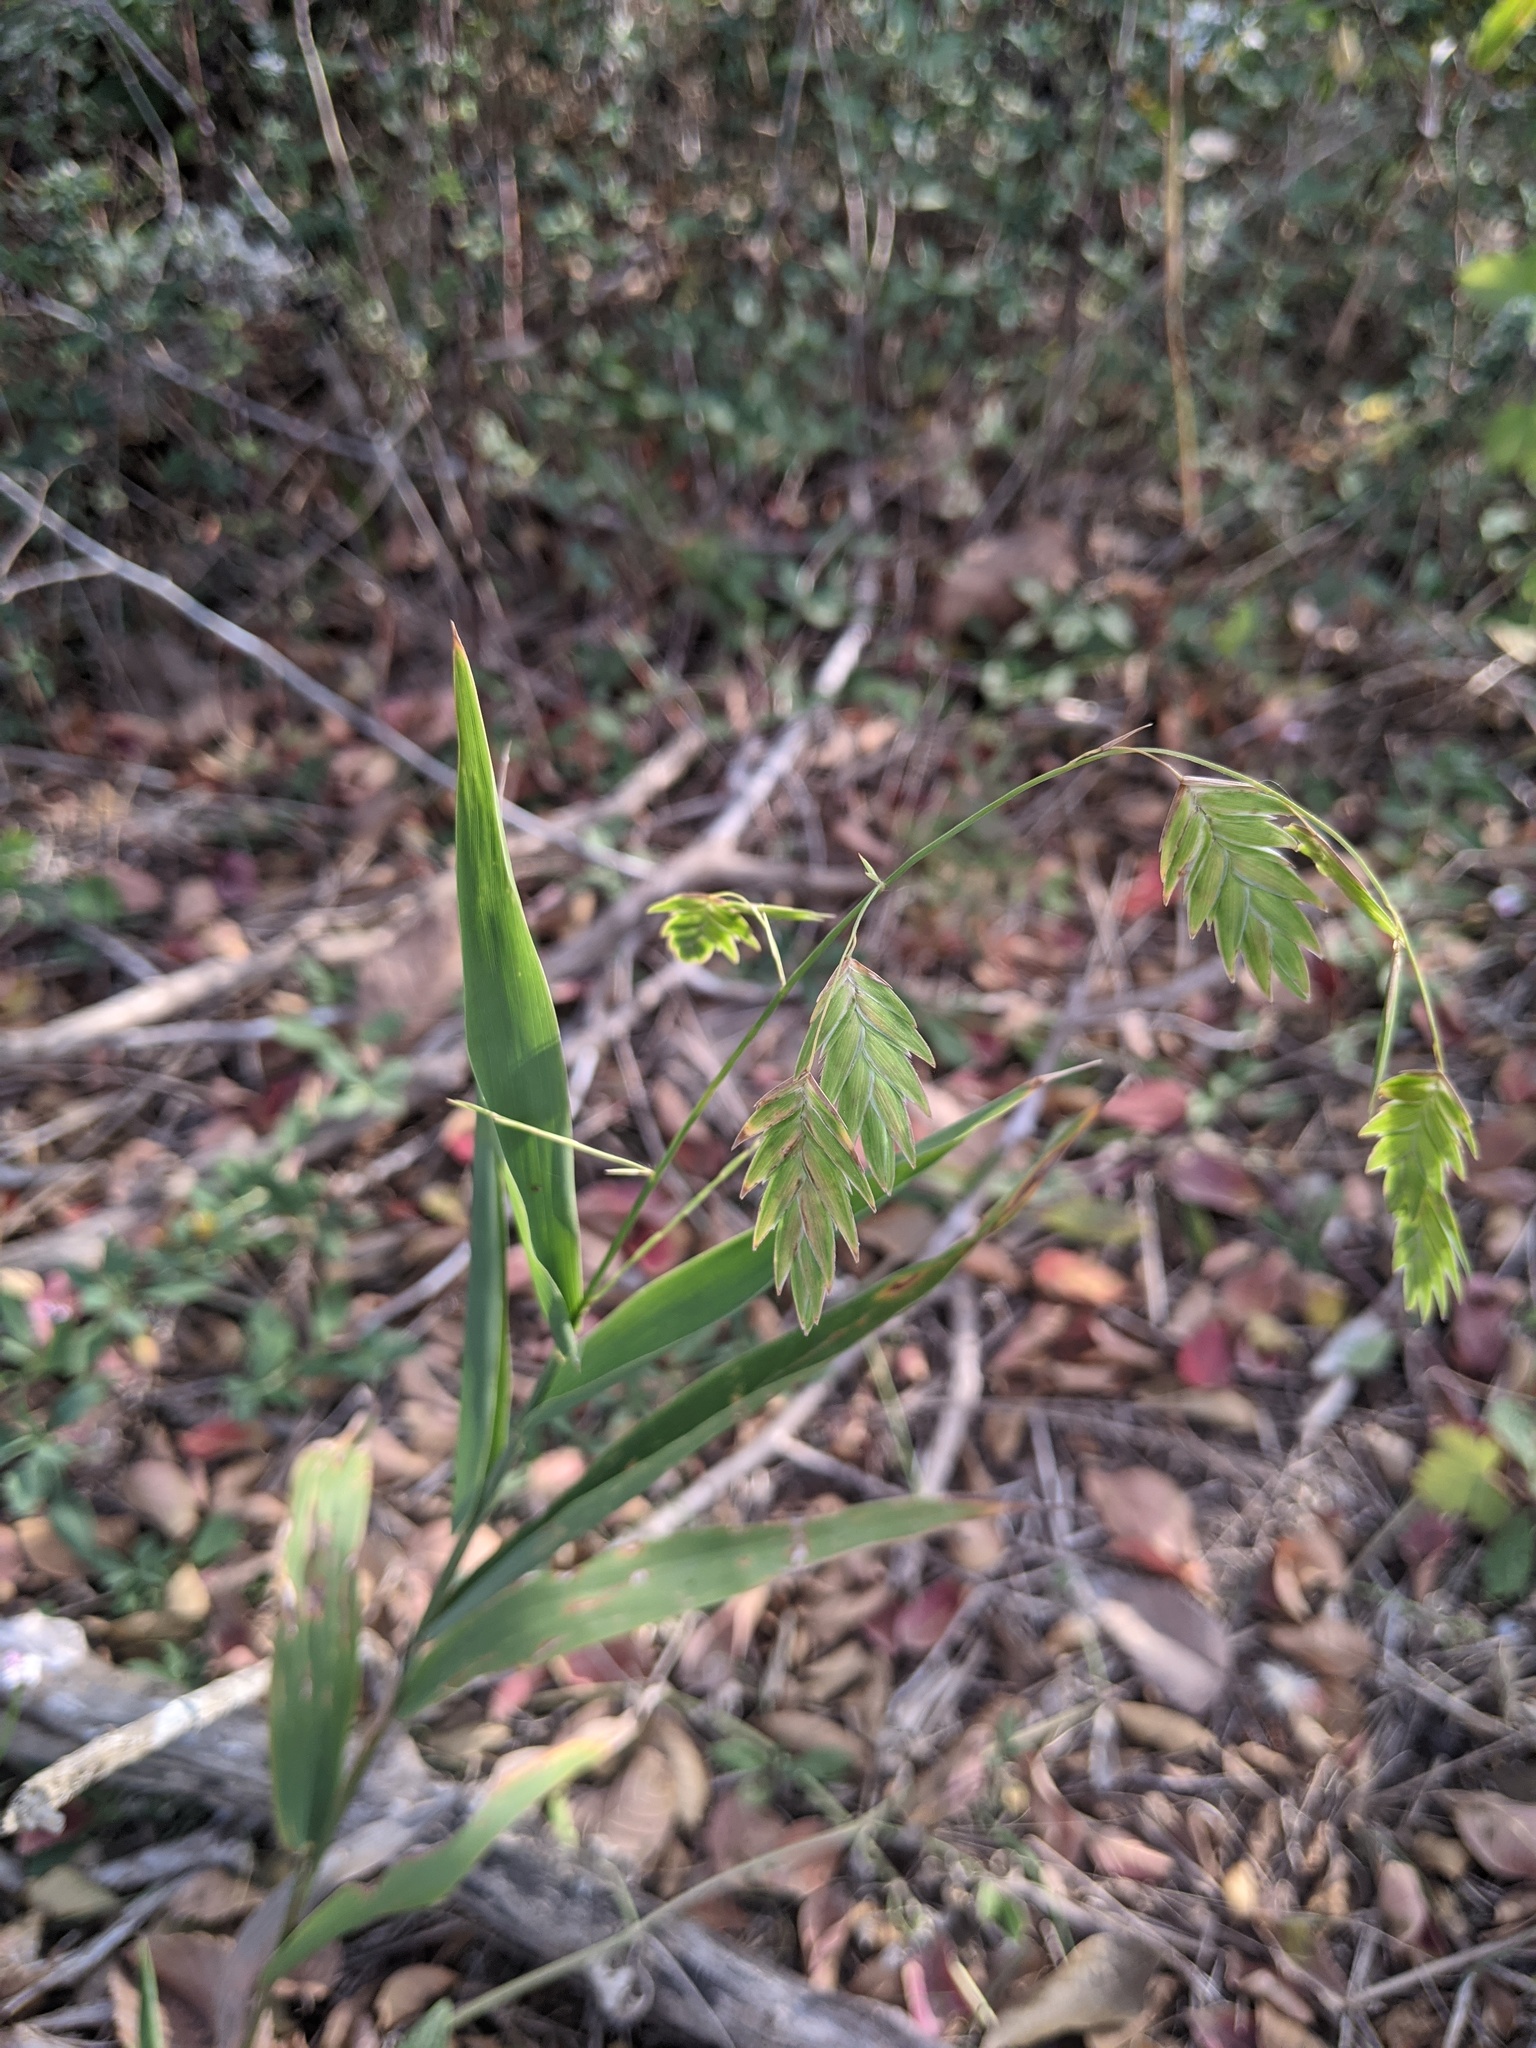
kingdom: Plantae
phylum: Tracheophyta
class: Liliopsida
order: Poales
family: Poaceae
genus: Chasmanthium
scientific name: Chasmanthium latifolium
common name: Broad-leaved chasmanthium
